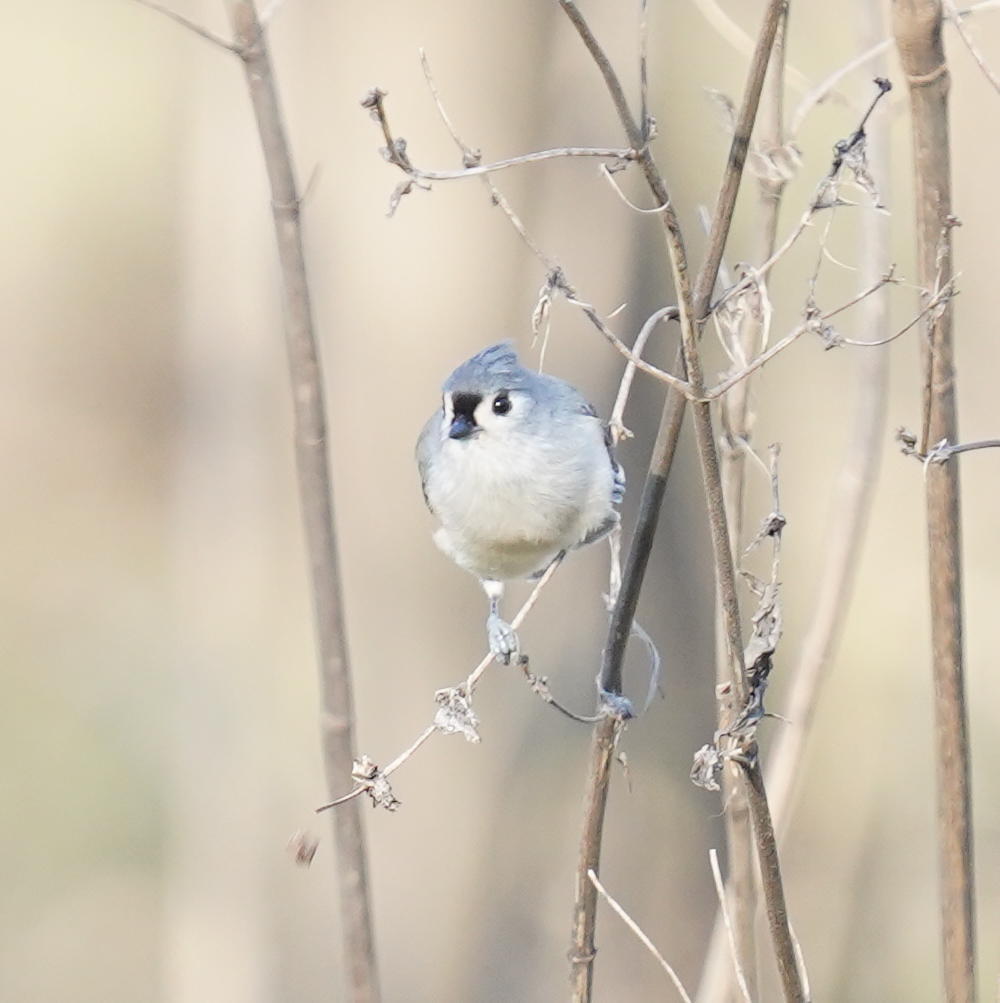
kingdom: Animalia
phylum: Chordata
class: Aves
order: Passeriformes
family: Paridae
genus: Baeolophus
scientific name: Baeolophus bicolor
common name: Tufted titmouse
